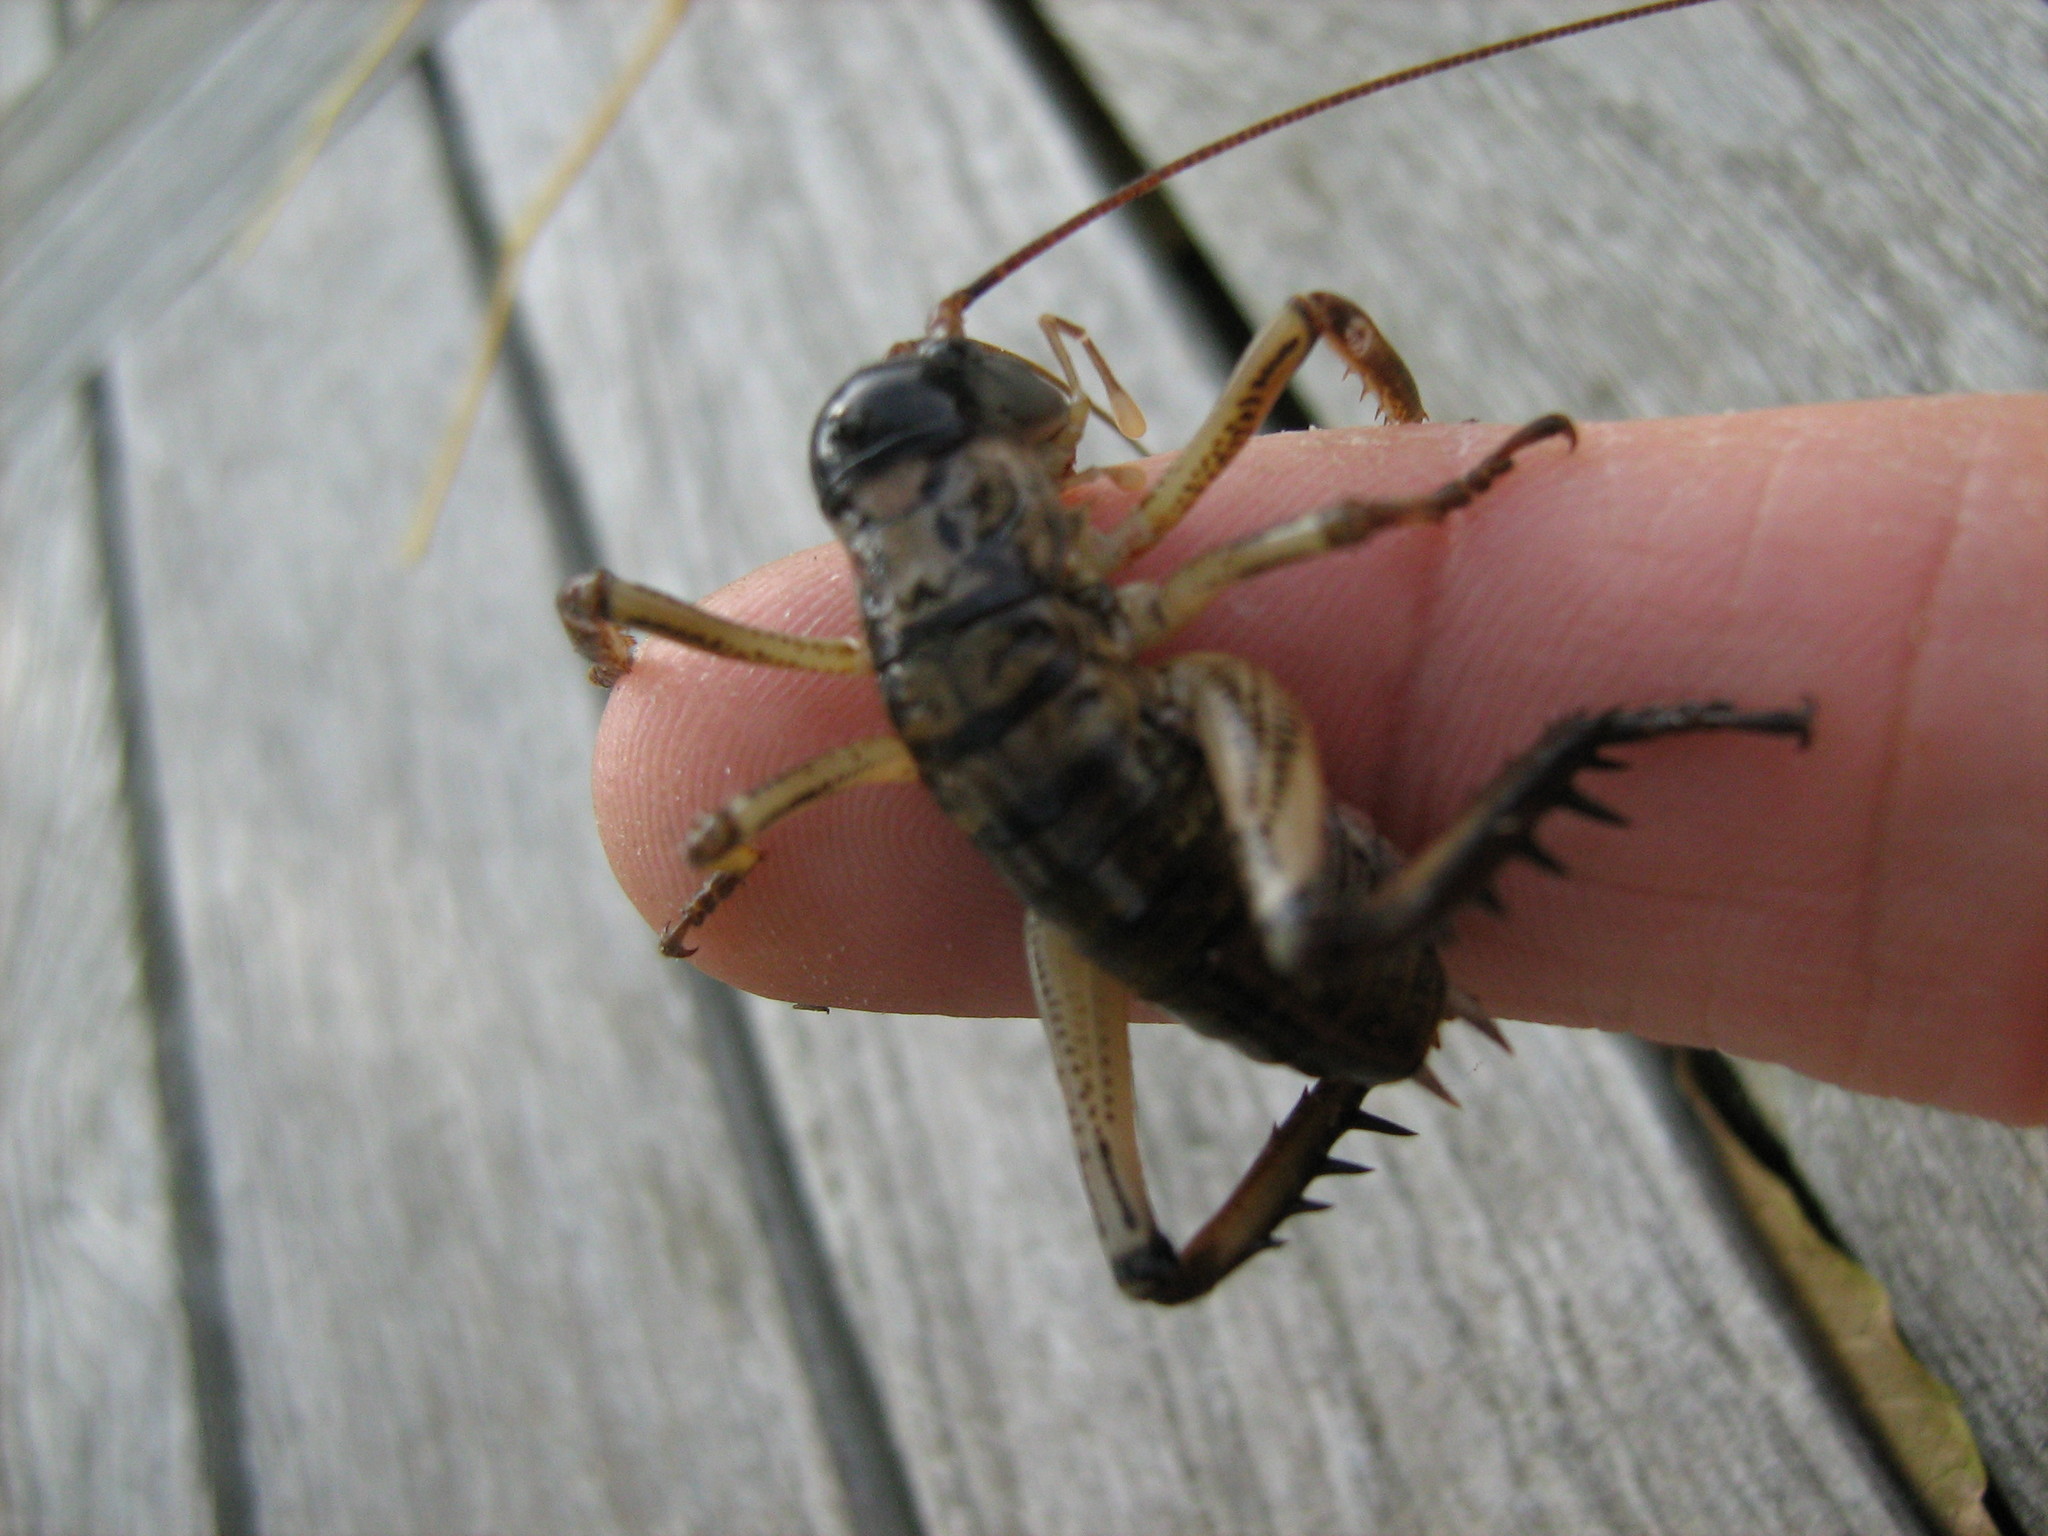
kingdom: Animalia
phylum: Arthropoda
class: Insecta
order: Orthoptera
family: Anostostomatidae
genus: Hemideina
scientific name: Hemideina thoracica
